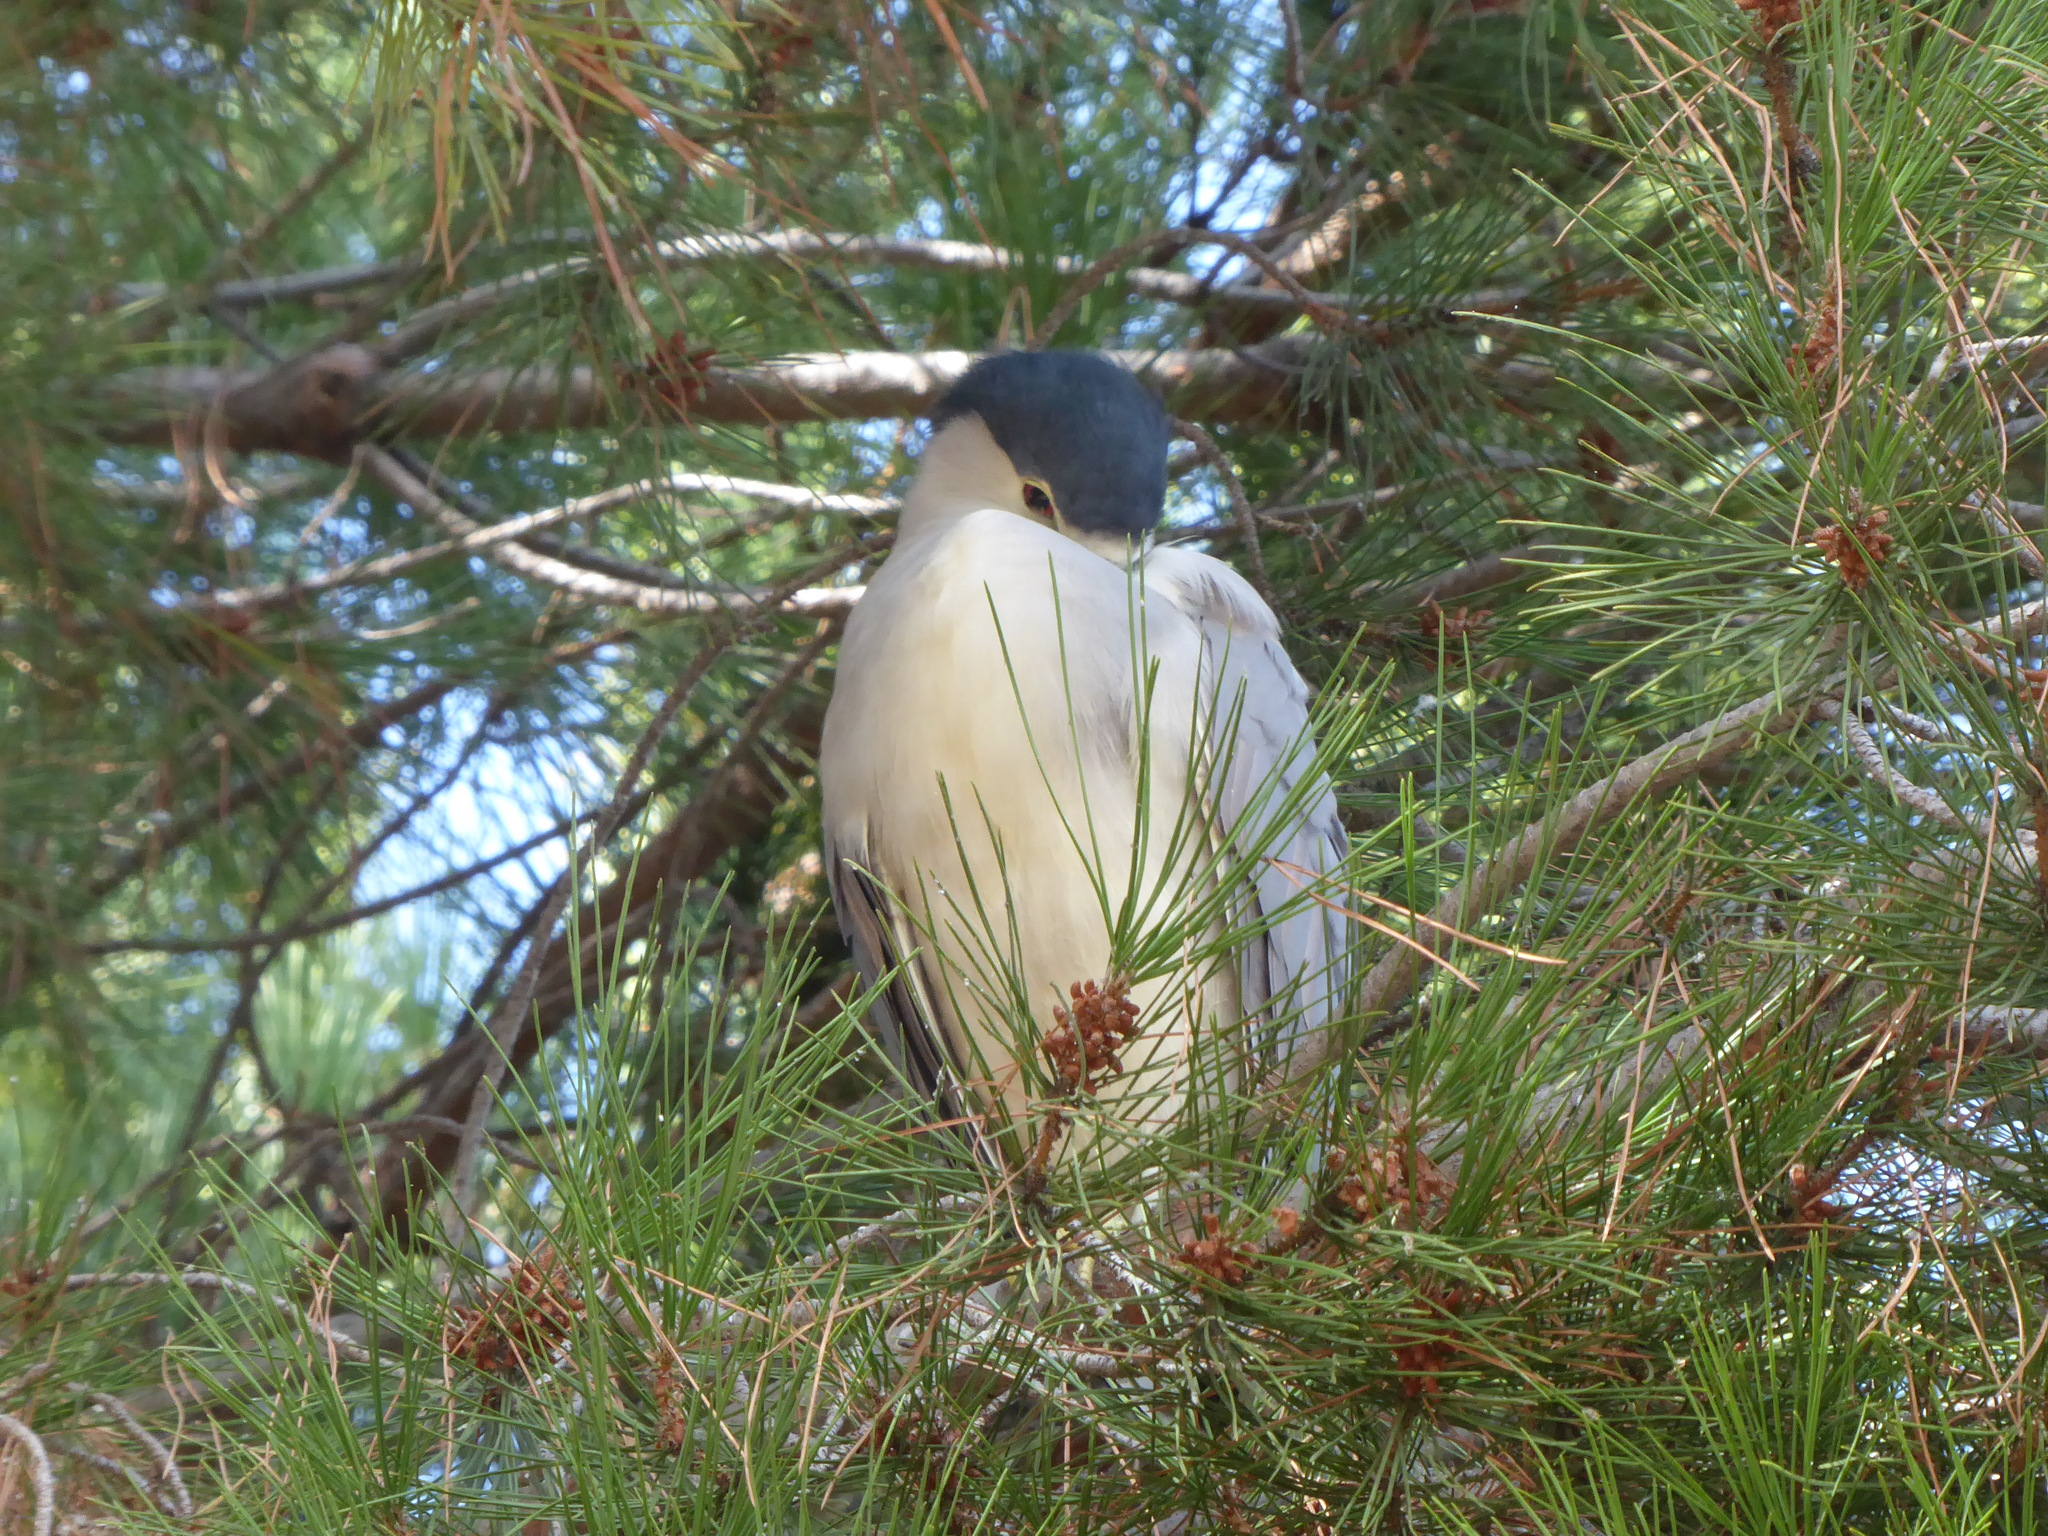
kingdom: Animalia
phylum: Chordata
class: Aves
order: Pelecaniformes
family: Ardeidae
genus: Nycticorax
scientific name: Nycticorax nycticorax
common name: Black-crowned night heron
